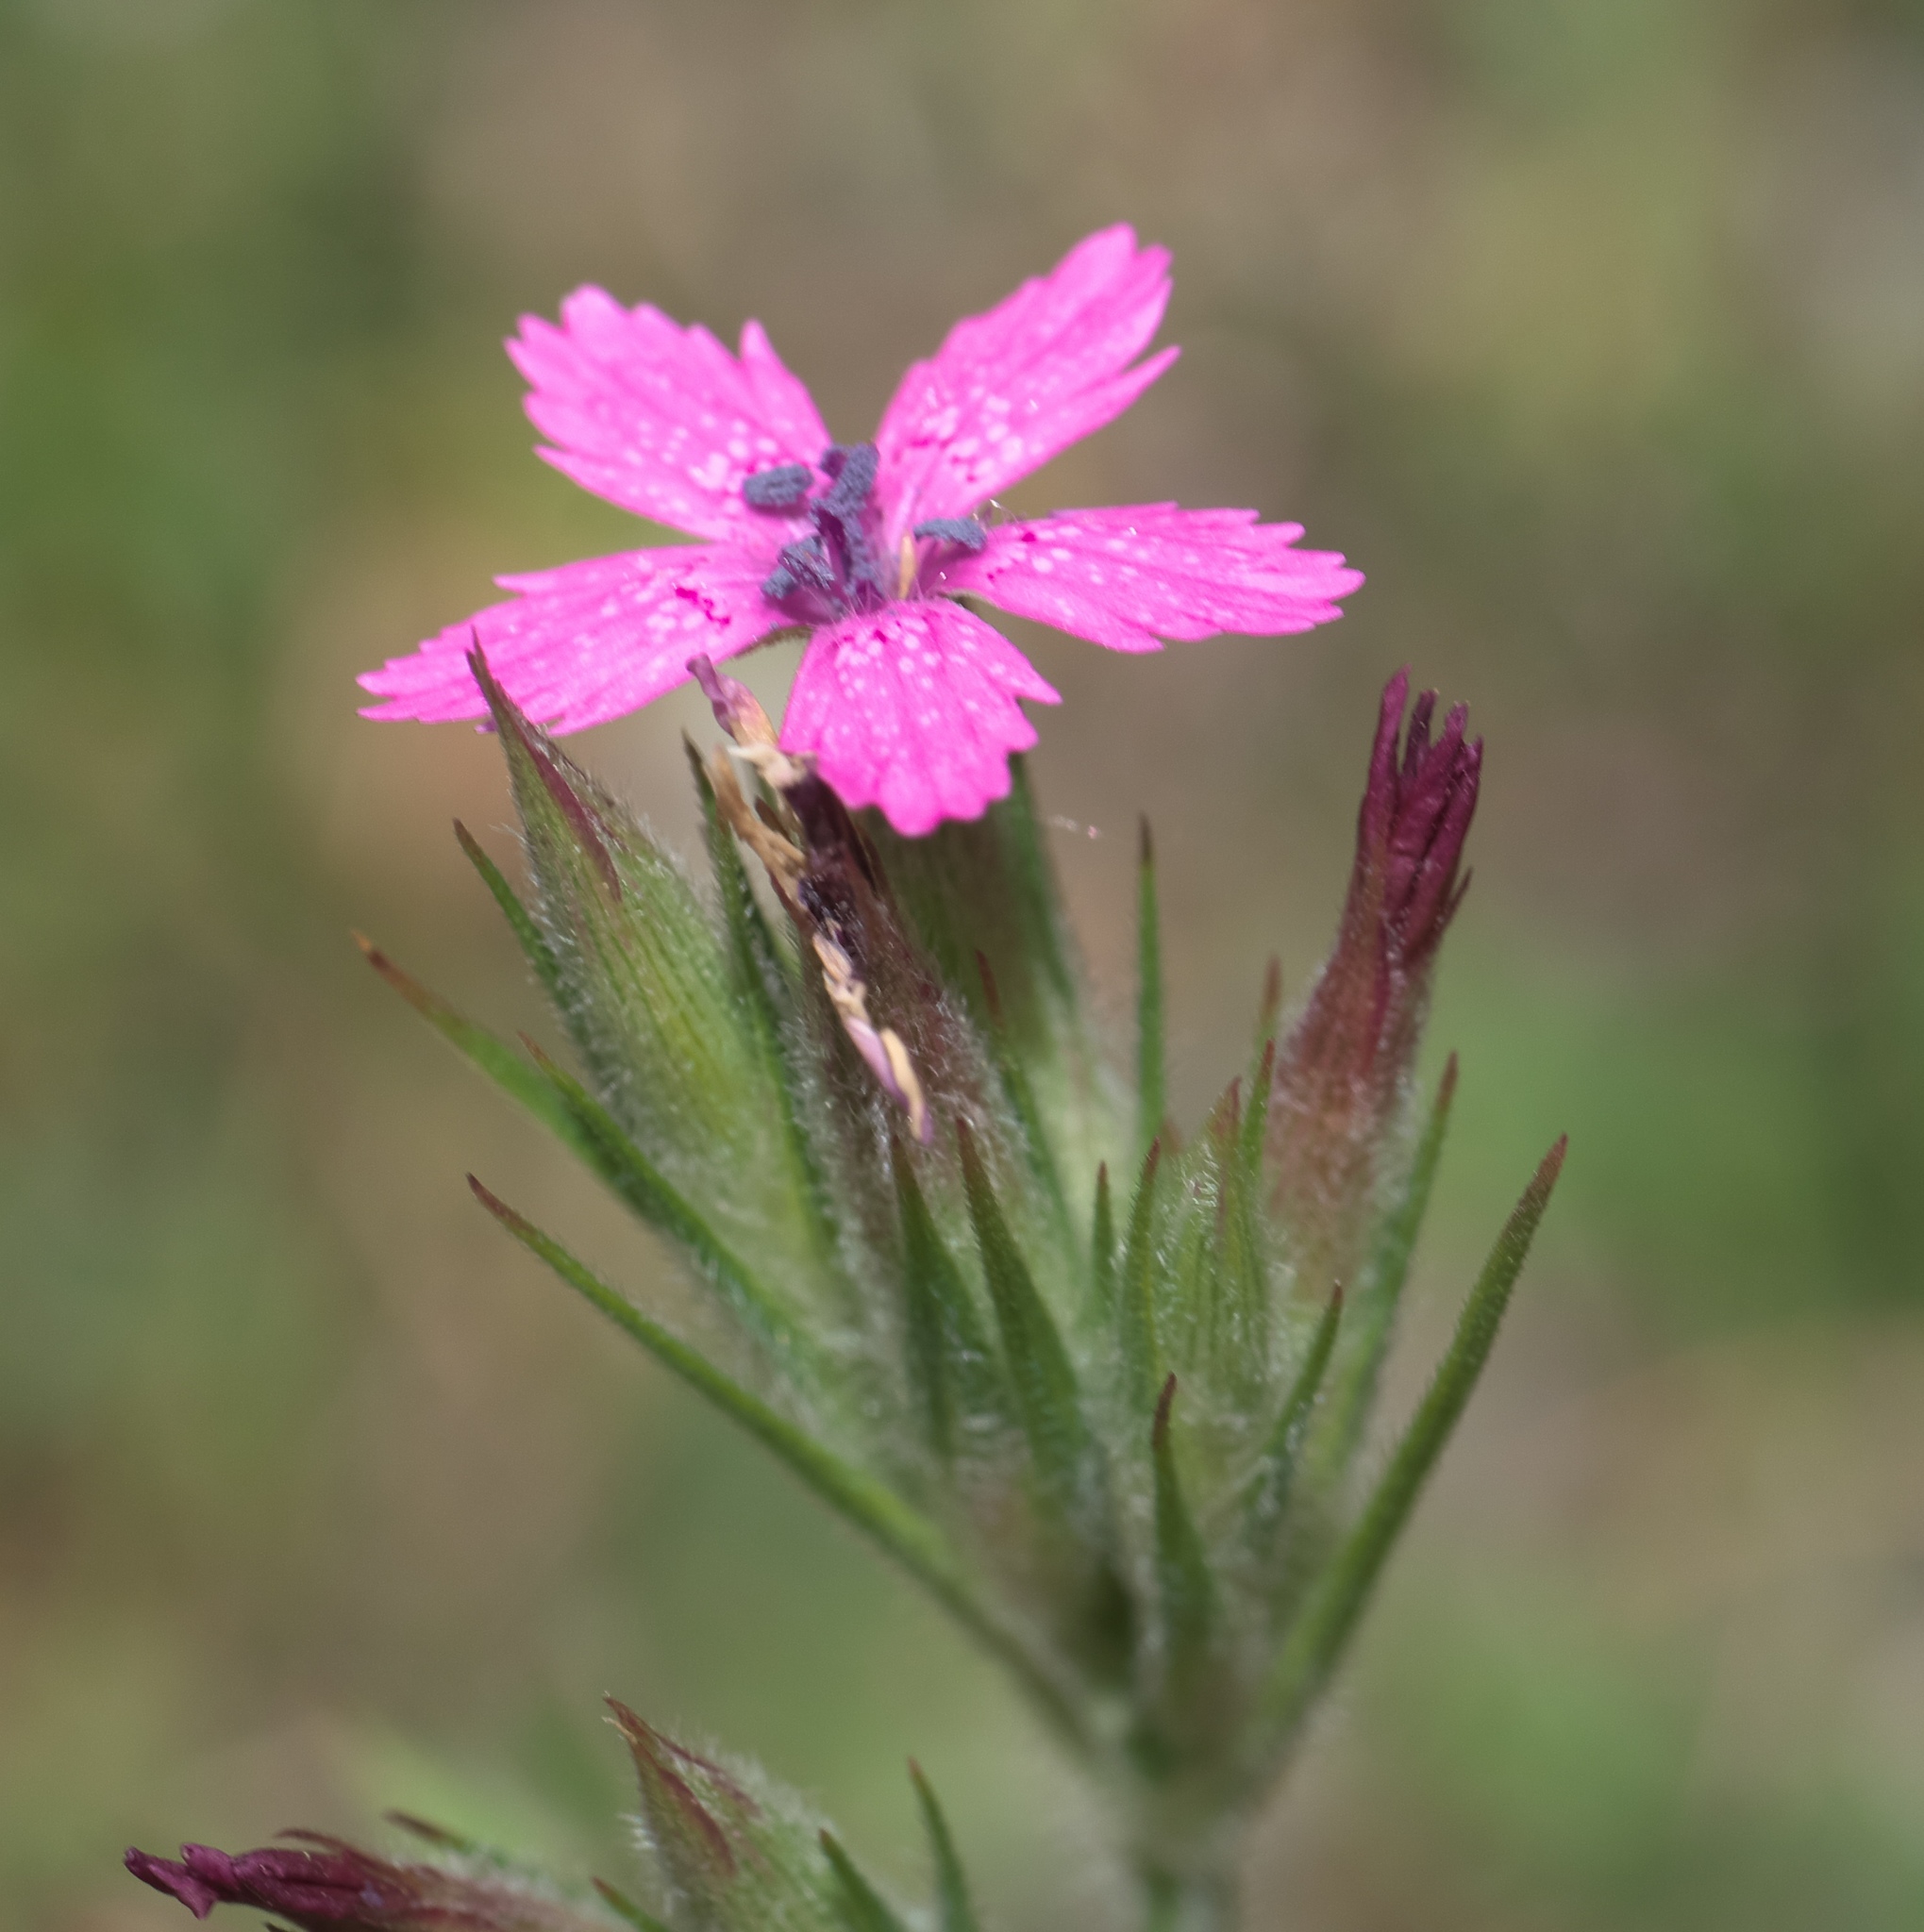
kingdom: Plantae
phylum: Tracheophyta
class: Magnoliopsida
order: Caryophyllales
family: Caryophyllaceae
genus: Dianthus
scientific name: Dianthus armeria
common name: Deptford pink
